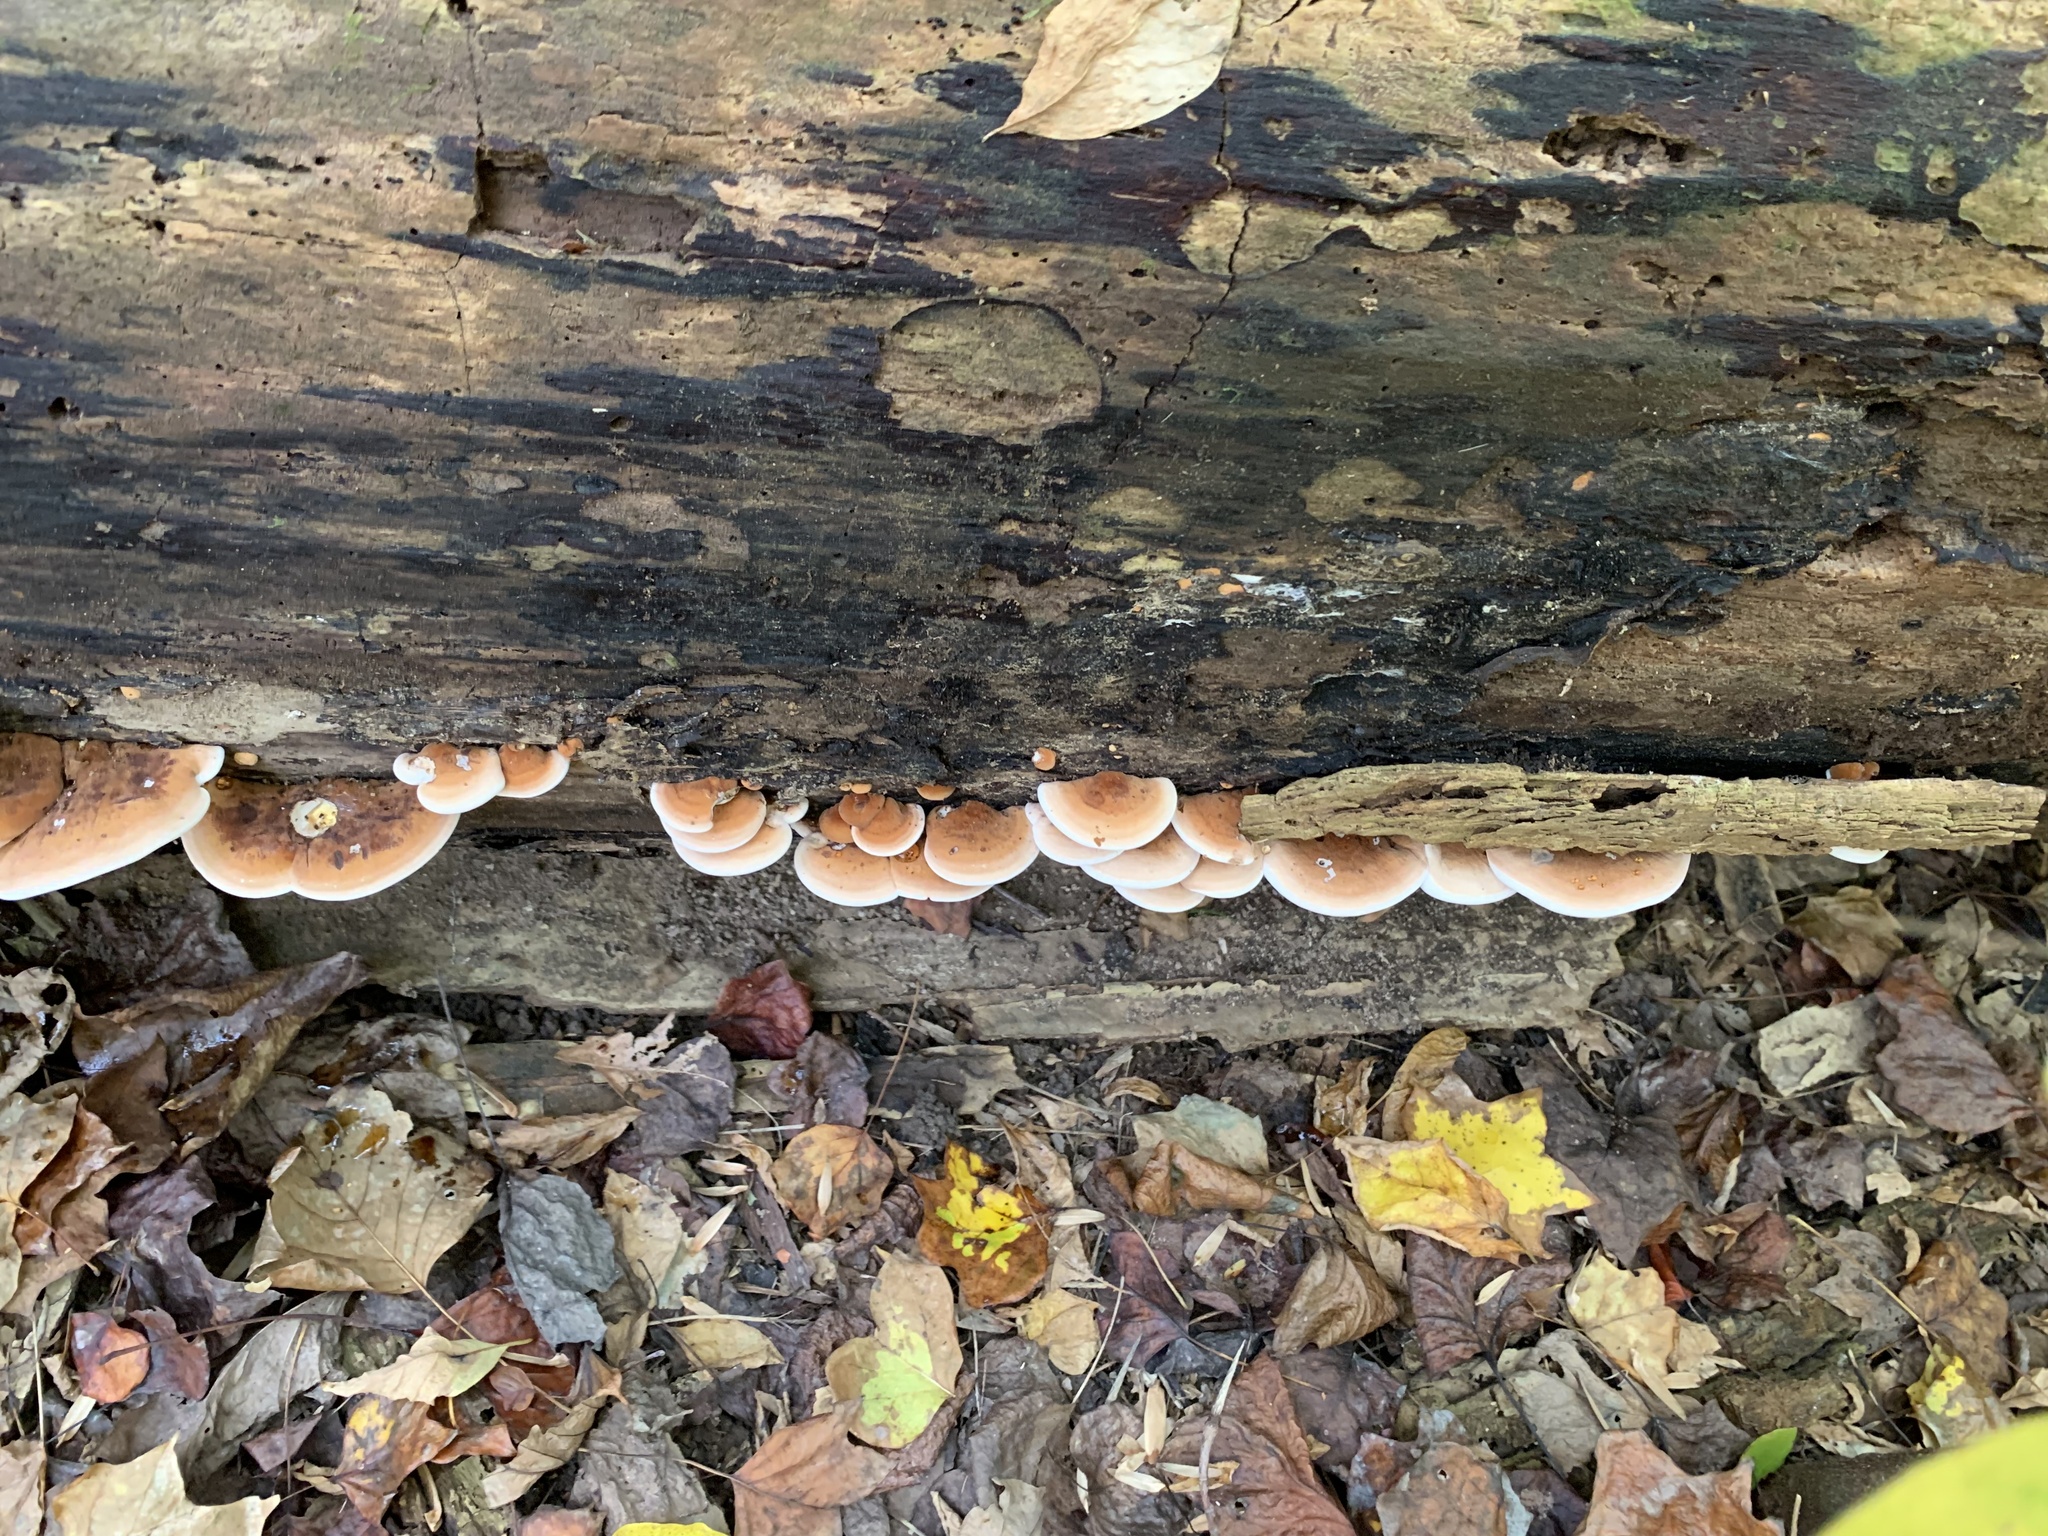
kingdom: Fungi
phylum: Basidiomycota
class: Agaricomycetes
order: Polyporales
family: Ischnodermataceae
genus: Ischnoderma
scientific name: Ischnoderma resinosum
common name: Resinous polypore
